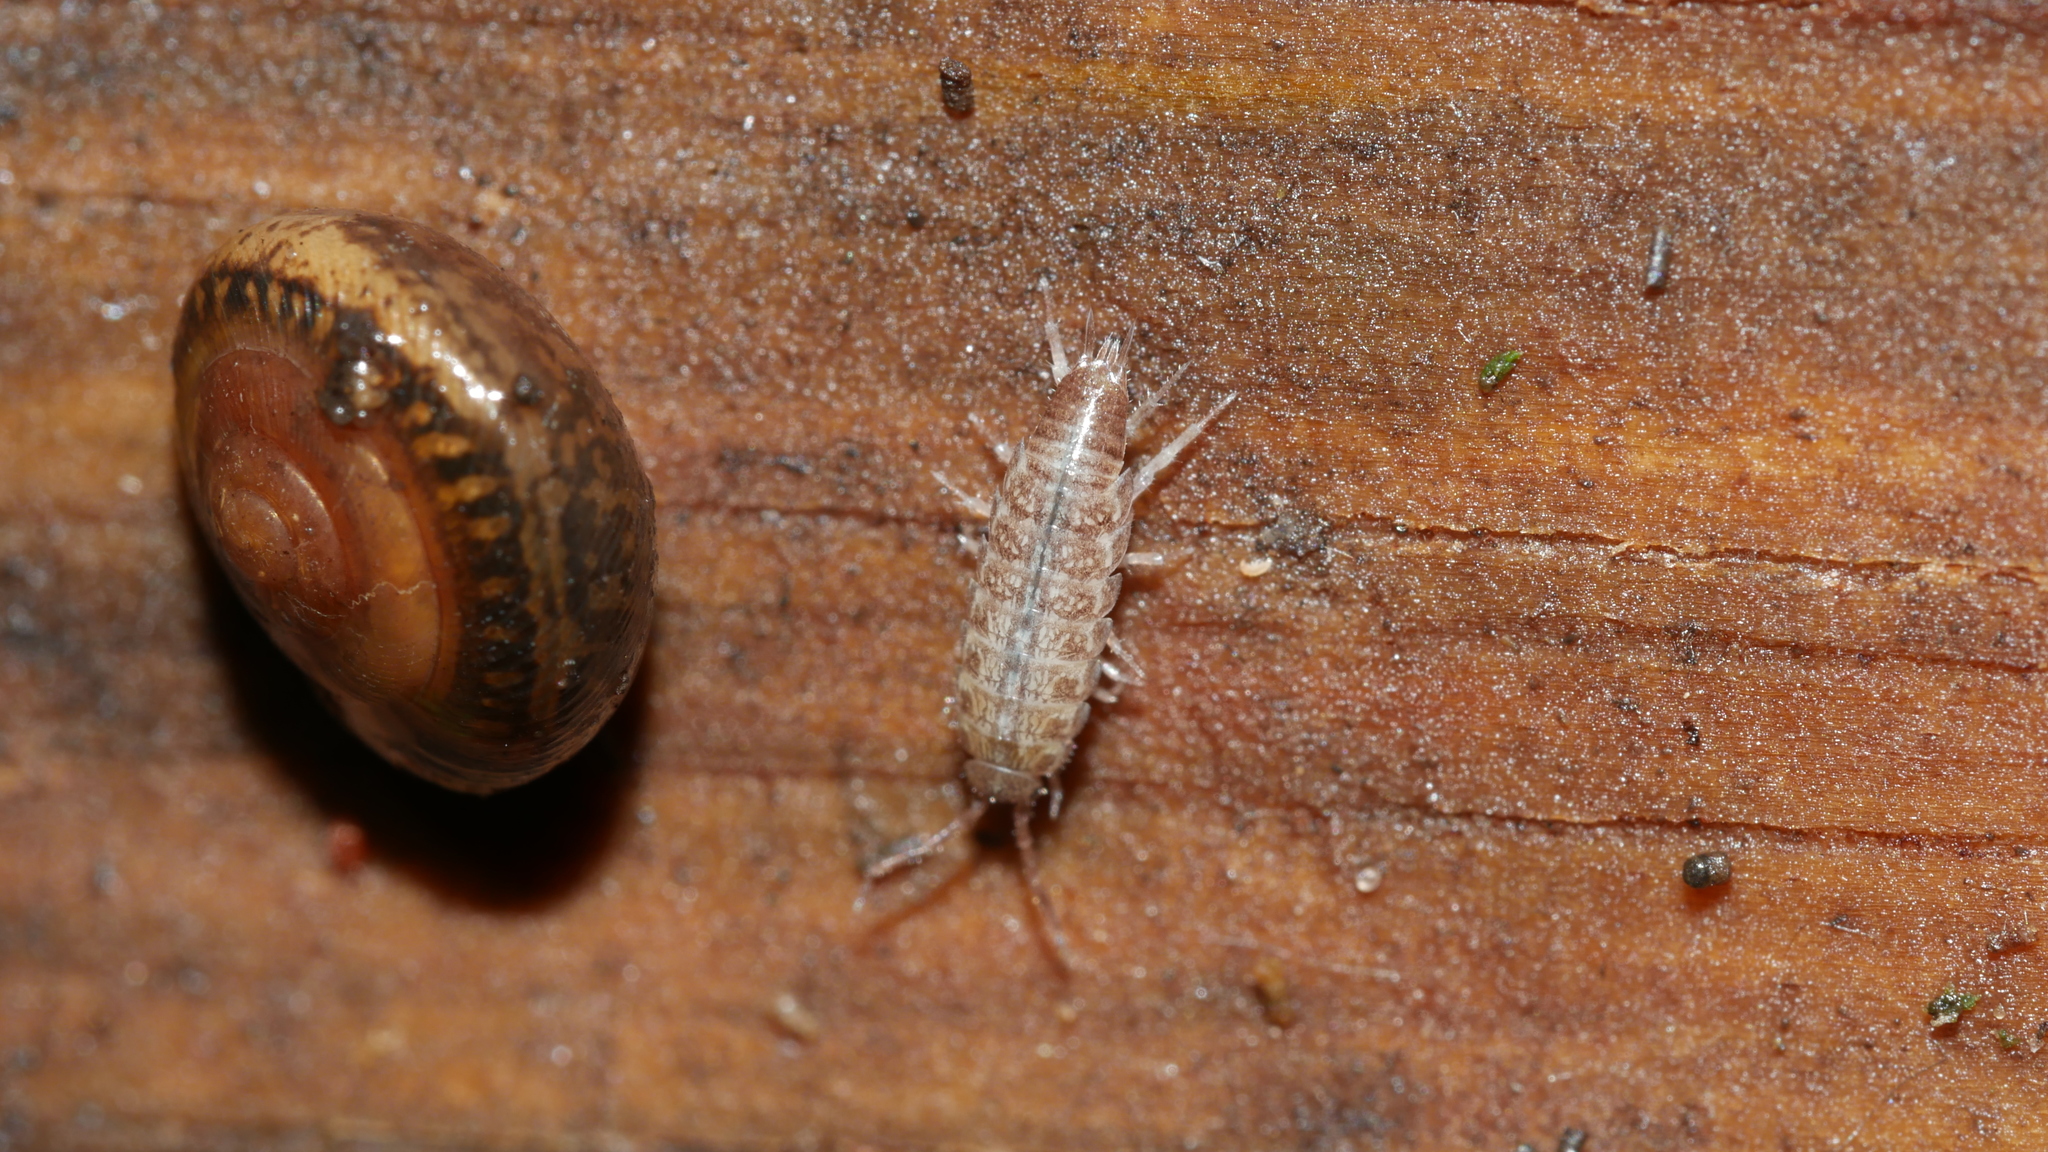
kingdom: Animalia
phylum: Arthropoda
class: Malacostraca
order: Isopoda
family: Philosciidae
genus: Chaetophiloscia
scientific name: Chaetophiloscia sicula
